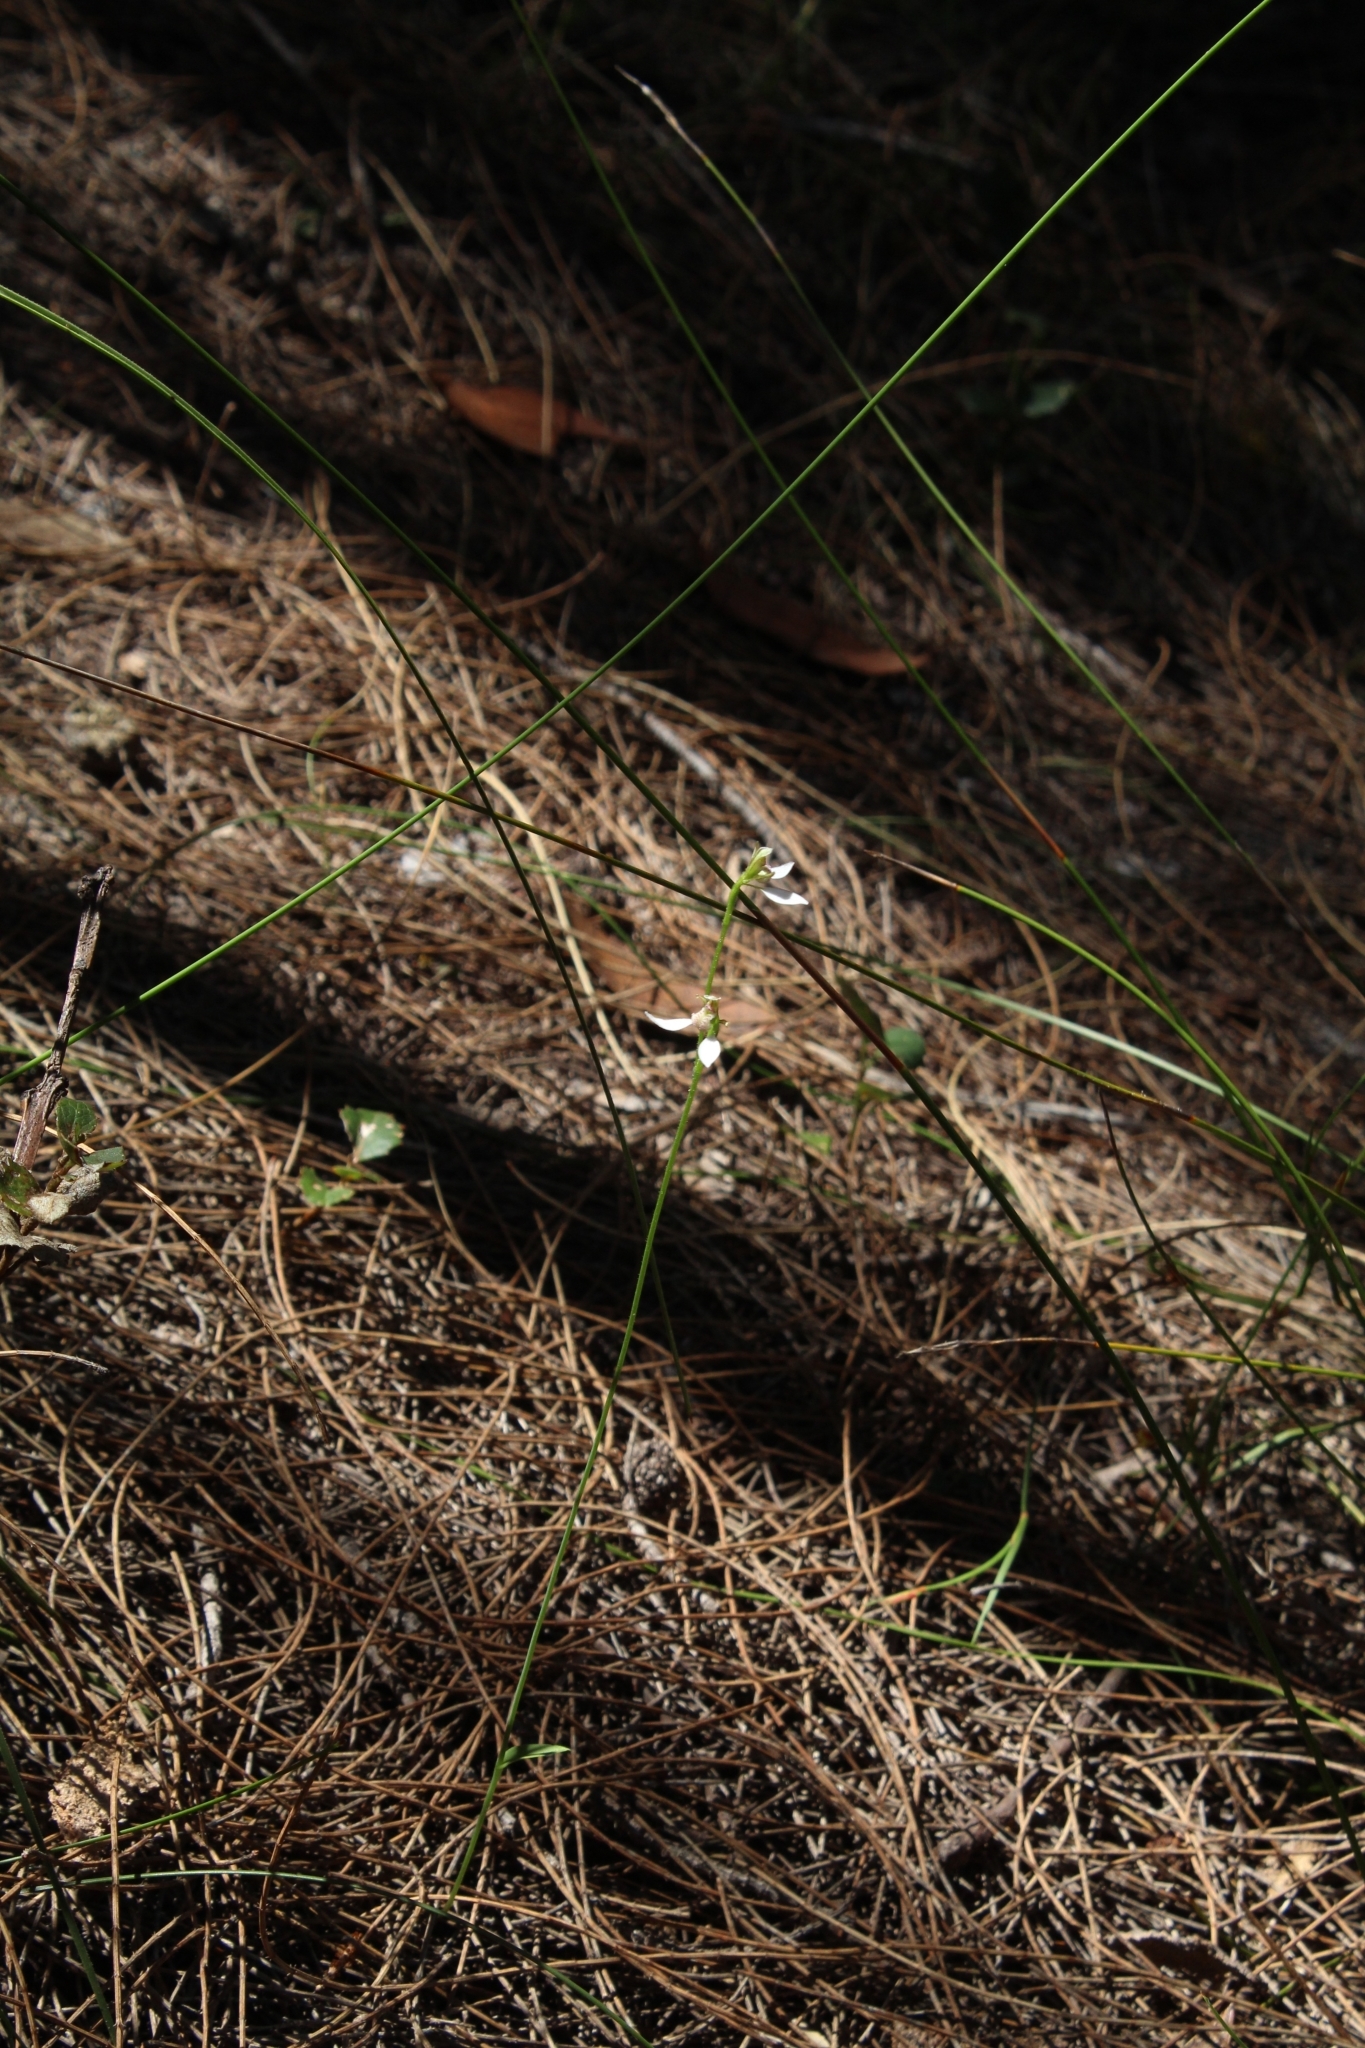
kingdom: Plantae
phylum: Tracheophyta
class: Liliopsida
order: Asparagales
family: Orchidaceae
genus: Eriochilus
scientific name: Eriochilus dilatatus
